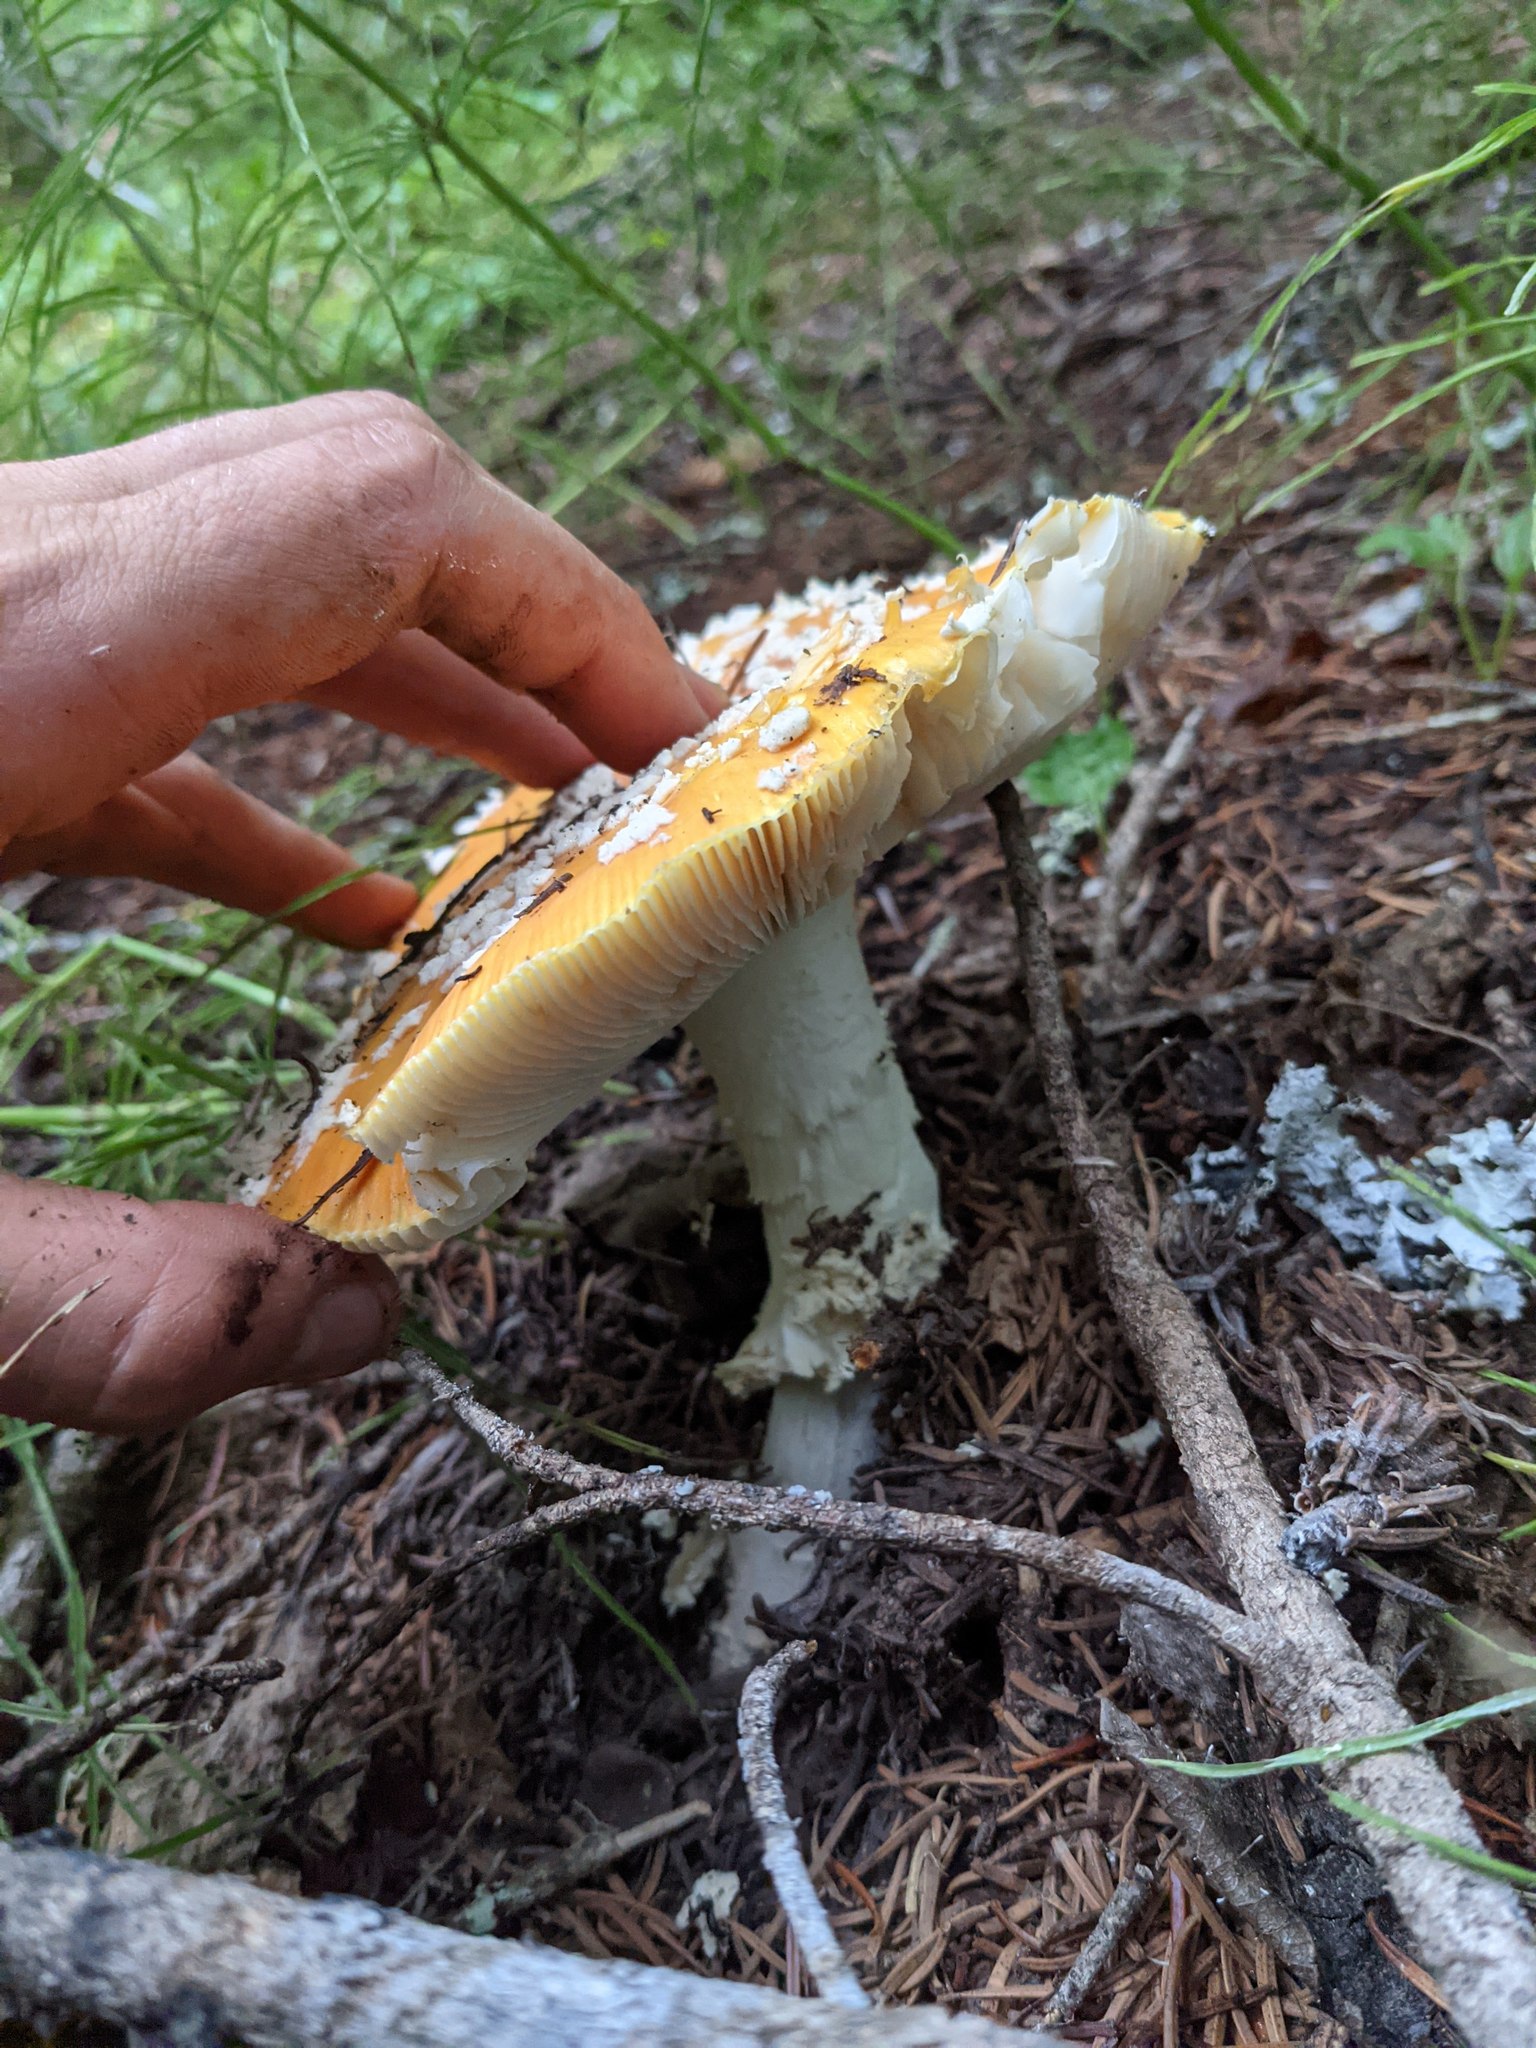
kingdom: Fungi
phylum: Basidiomycota
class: Agaricomycetes
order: Agaricales
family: Amanitaceae
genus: Amanita
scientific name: Amanita muscaria
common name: Fly agaric
